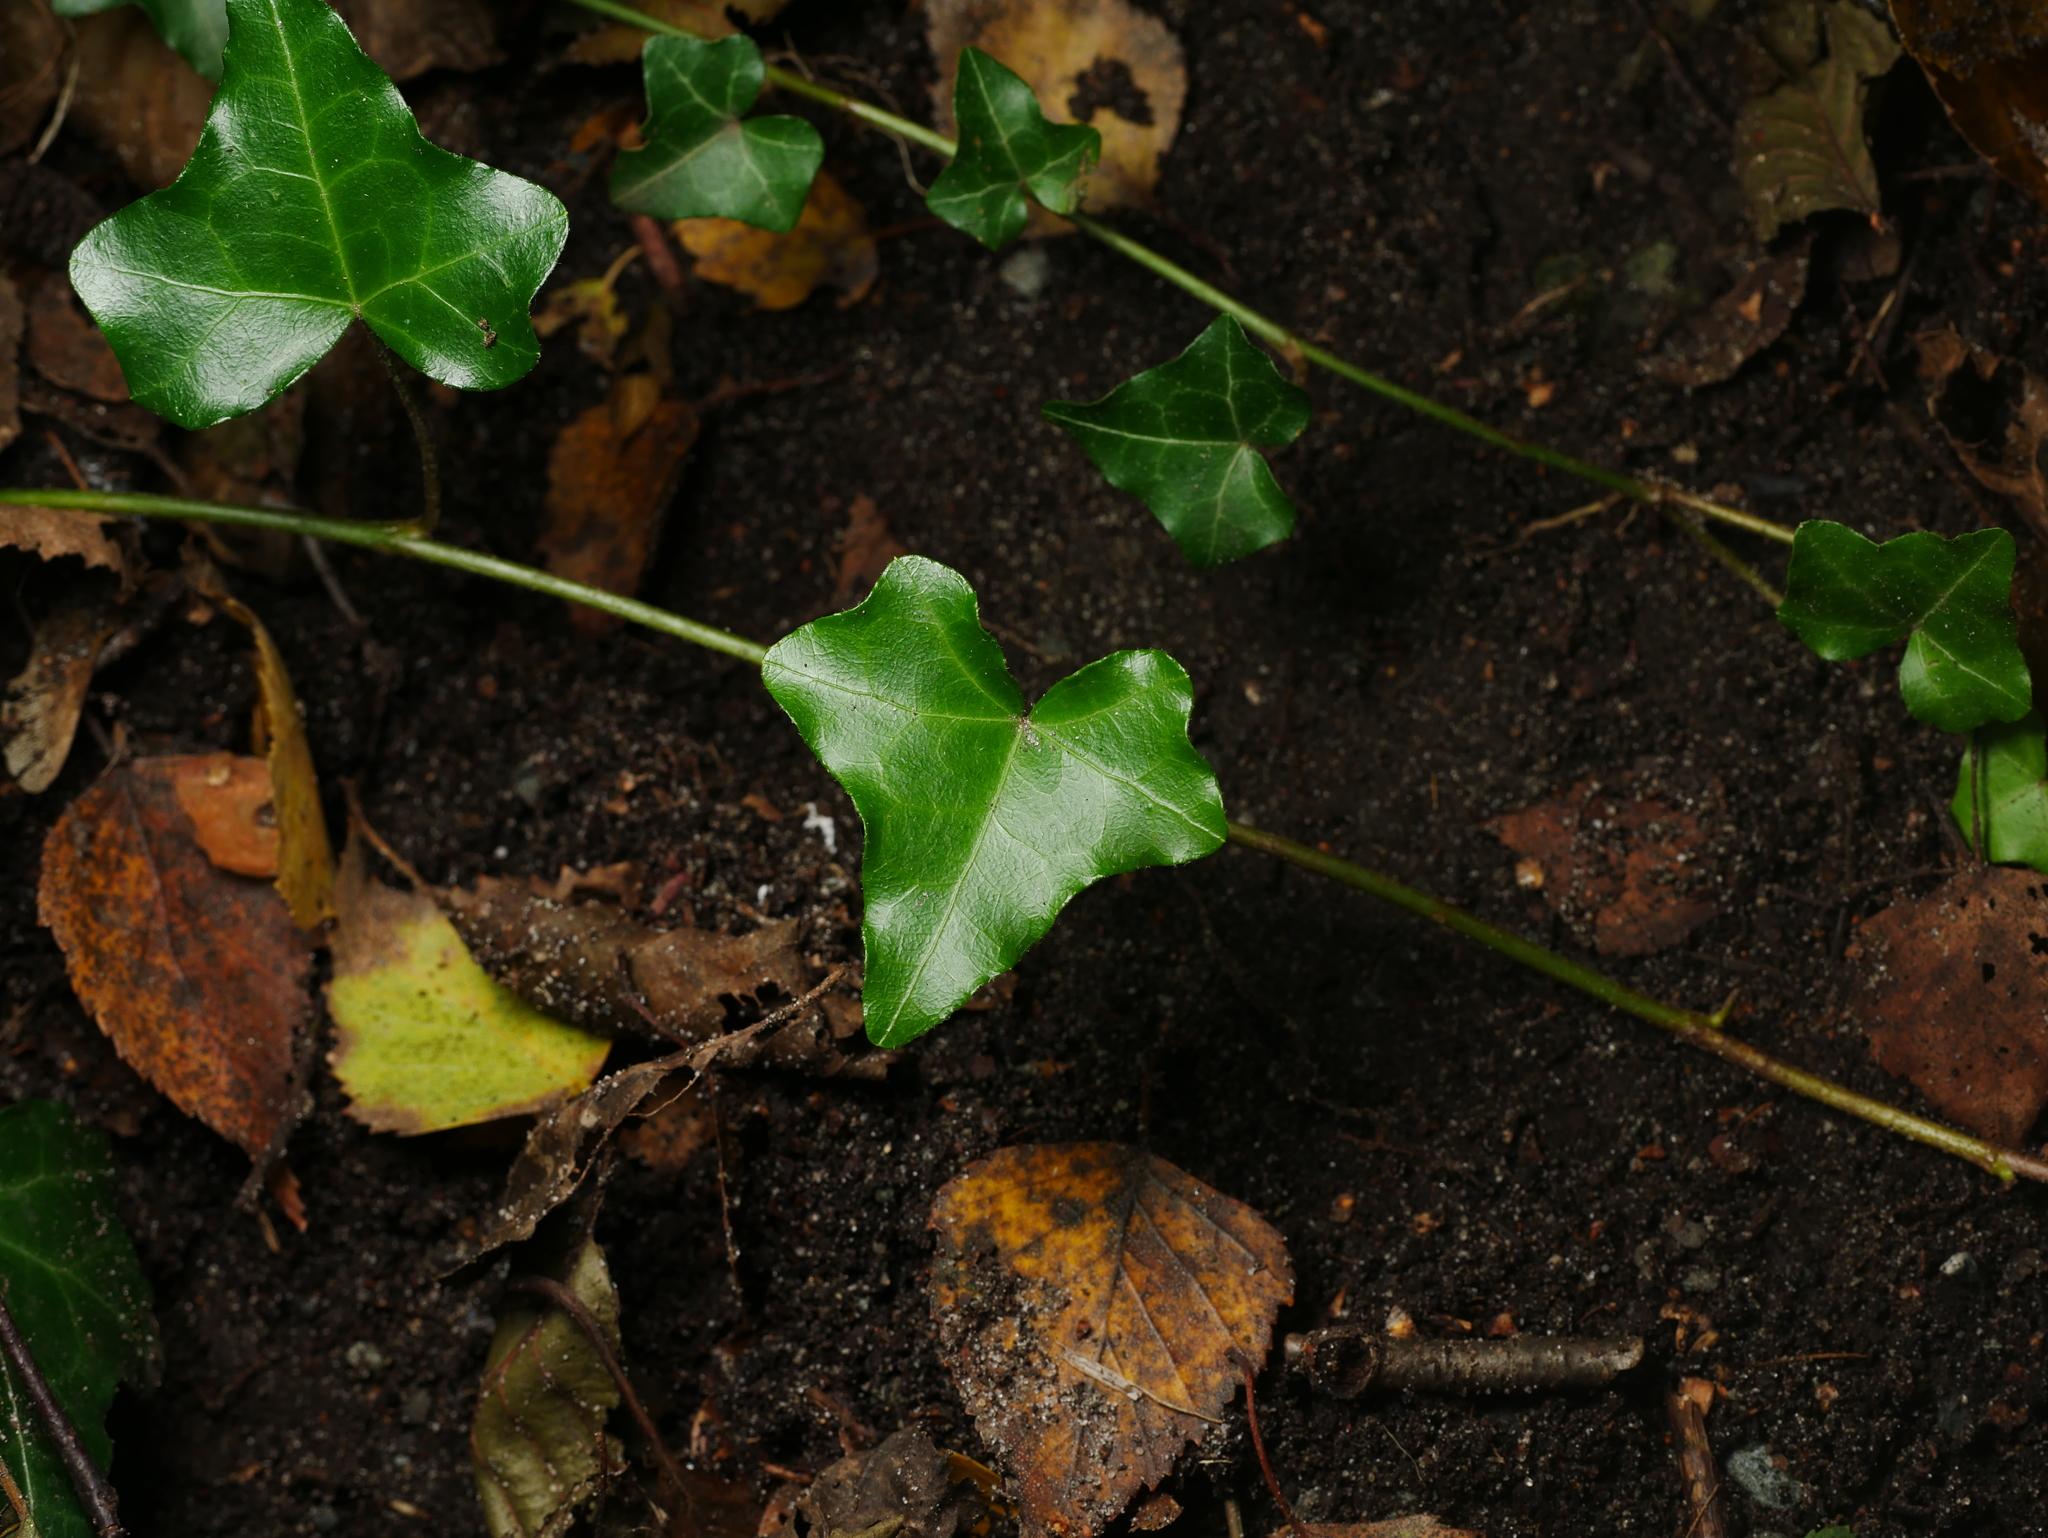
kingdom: Plantae
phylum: Tracheophyta
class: Magnoliopsida
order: Apiales
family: Araliaceae
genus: Hedera
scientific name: Hedera helix
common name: Ivy
